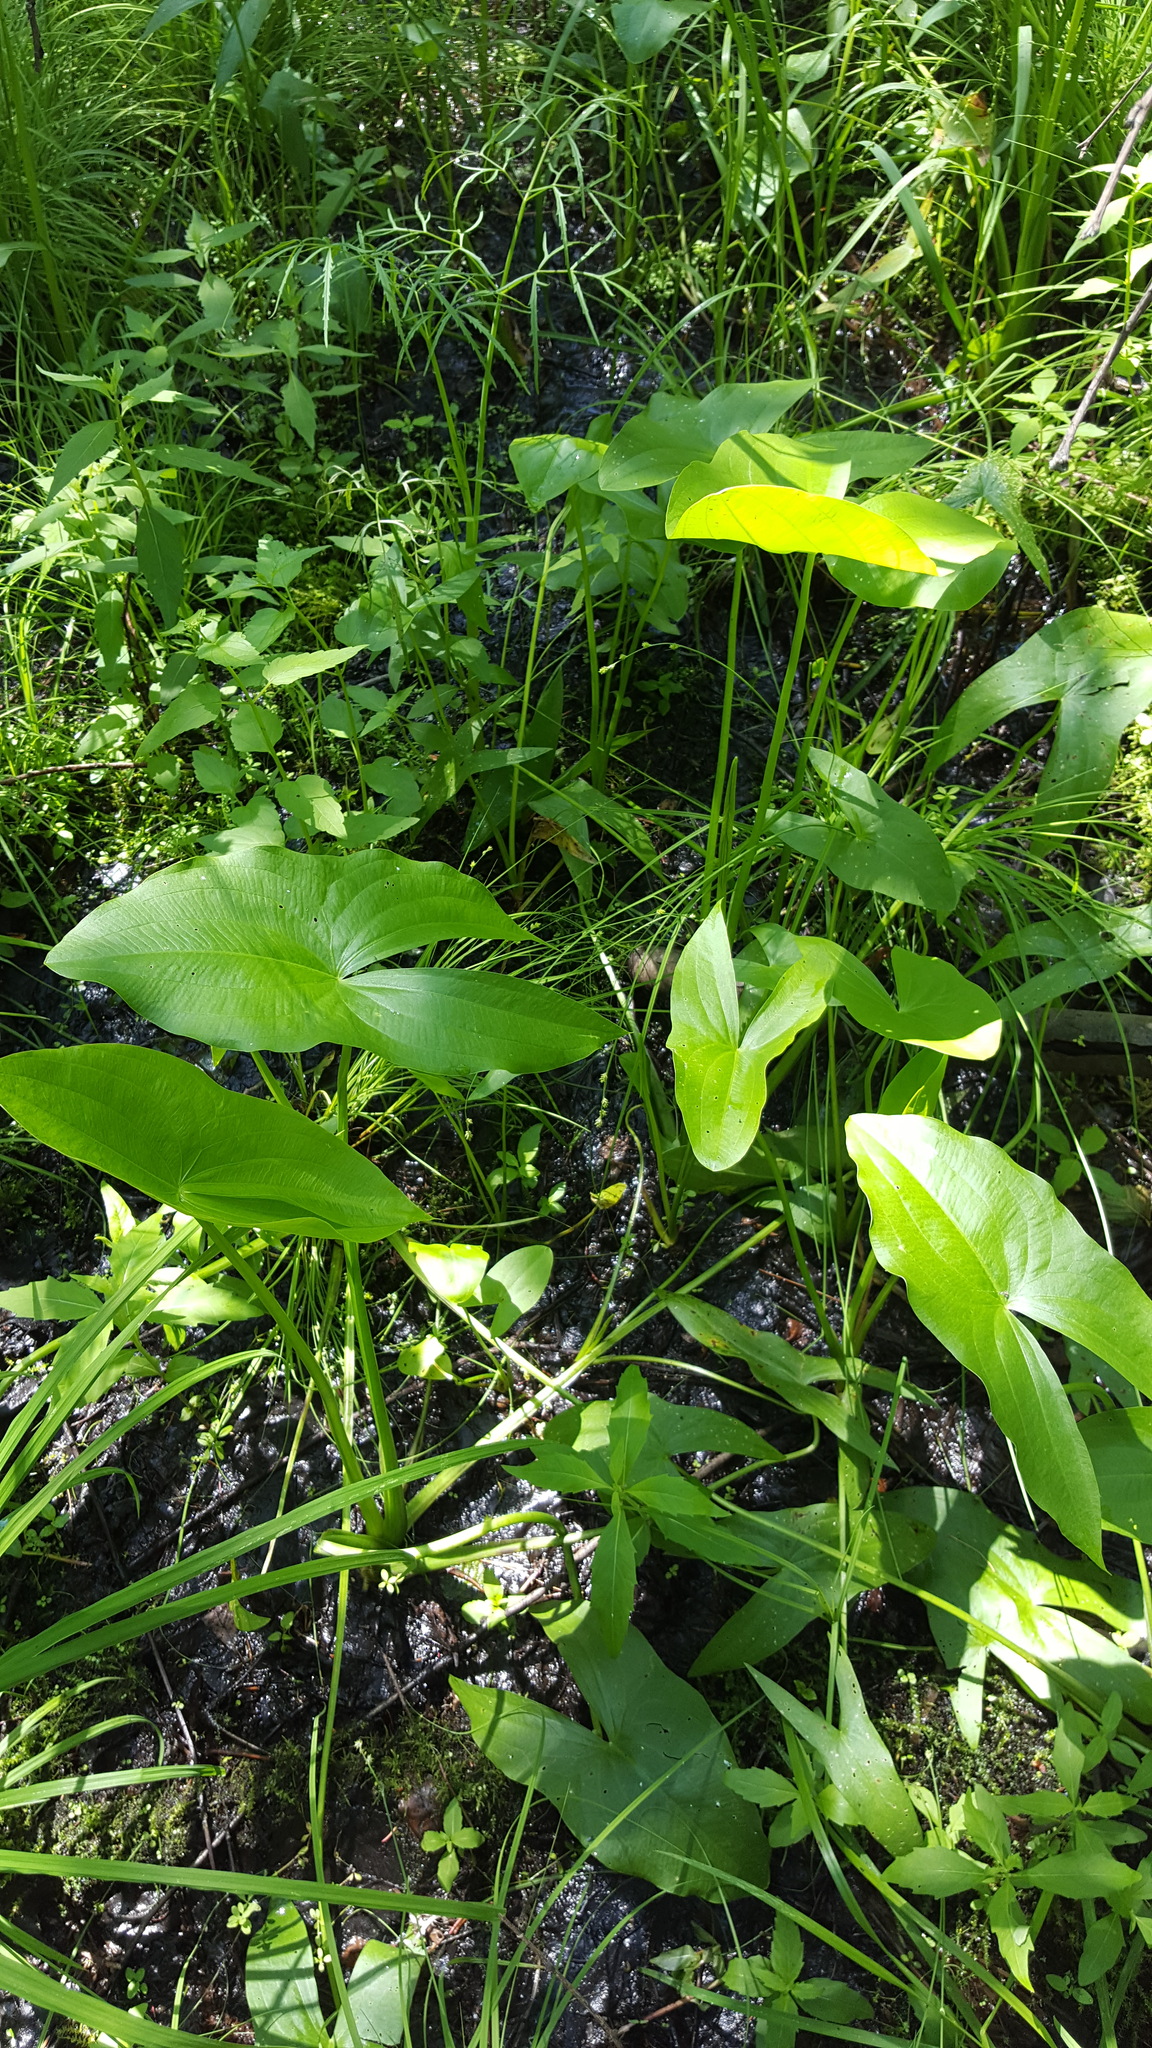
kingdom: Plantae
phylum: Tracheophyta
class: Liliopsida
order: Alismatales
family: Alismataceae
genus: Sagittaria
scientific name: Sagittaria latifolia
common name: Duck-potato
